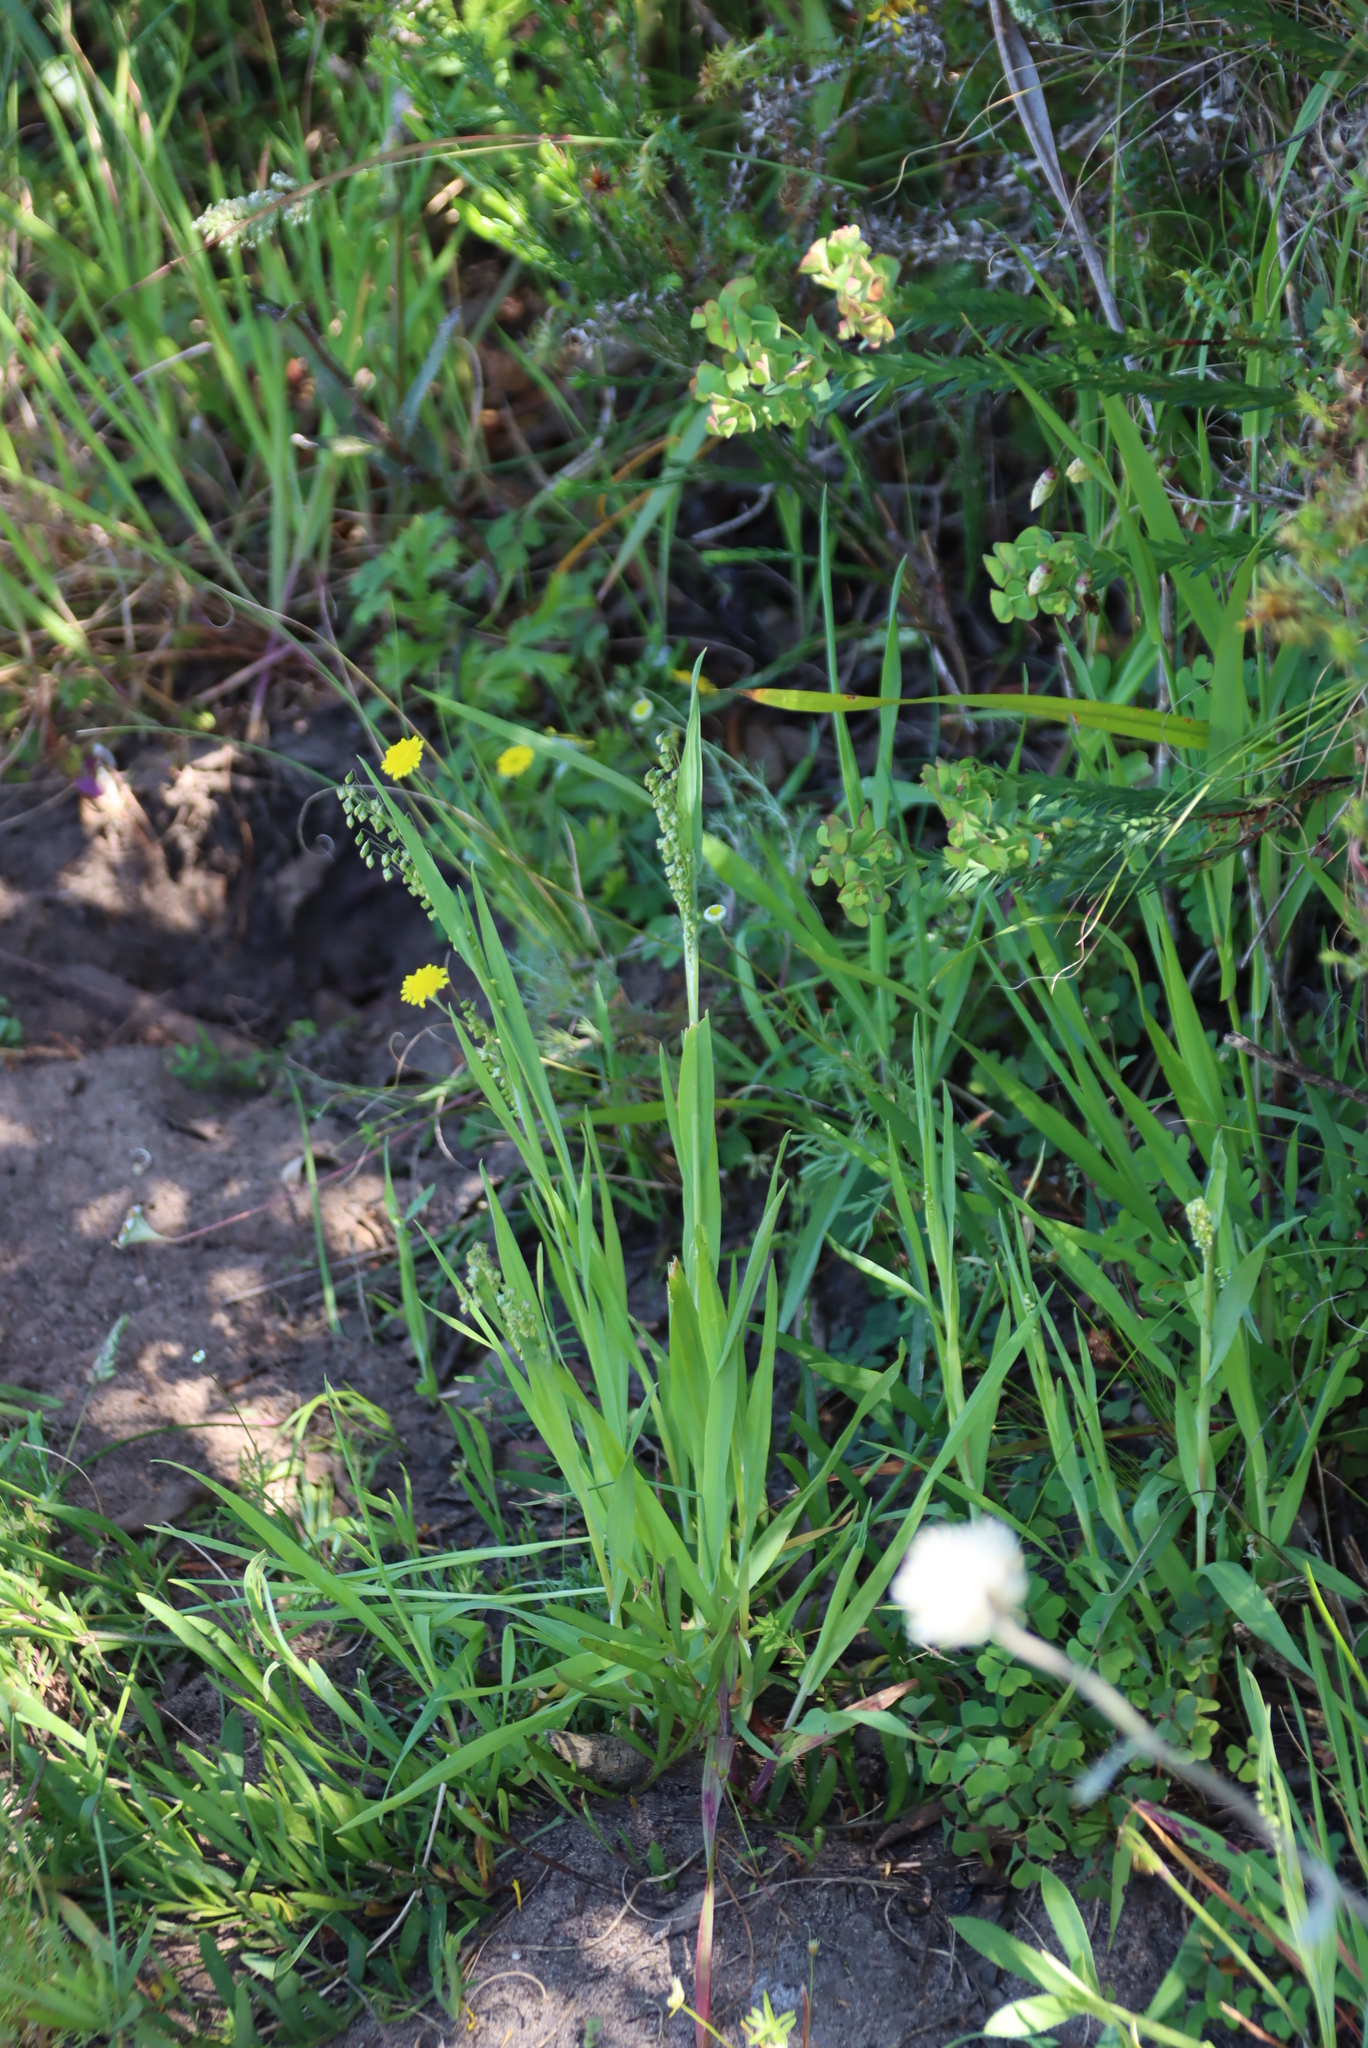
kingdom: Plantae
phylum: Tracheophyta
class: Liliopsida
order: Poales
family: Poaceae
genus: Briza
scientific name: Briza minor
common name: Lesser quaking-grass
